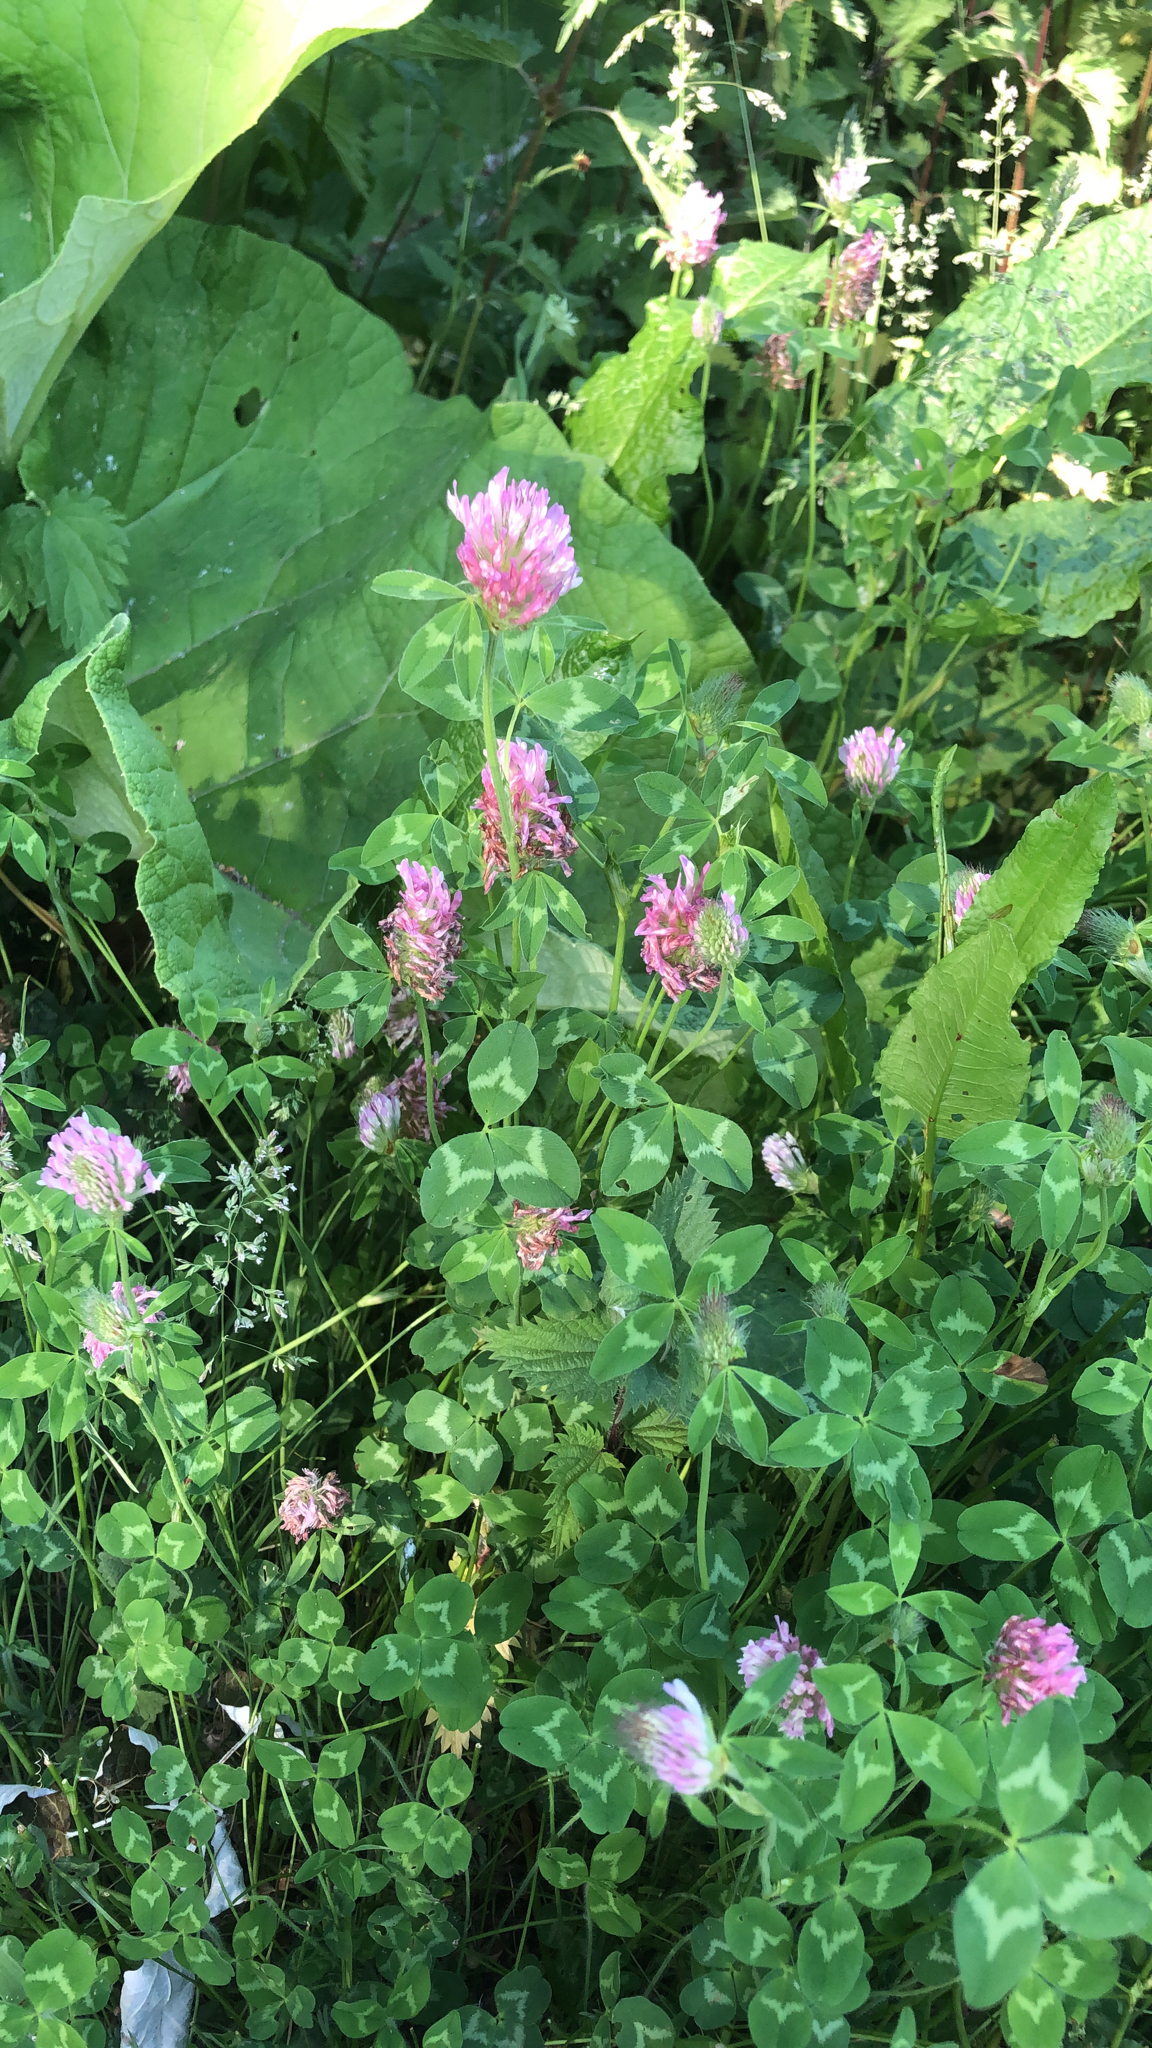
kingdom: Plantae
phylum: Tracheophyta
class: Magnoliopsida
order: Fabales
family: Fabaceae
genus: Trifolium
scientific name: Trifolium pratense
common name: Red clover
